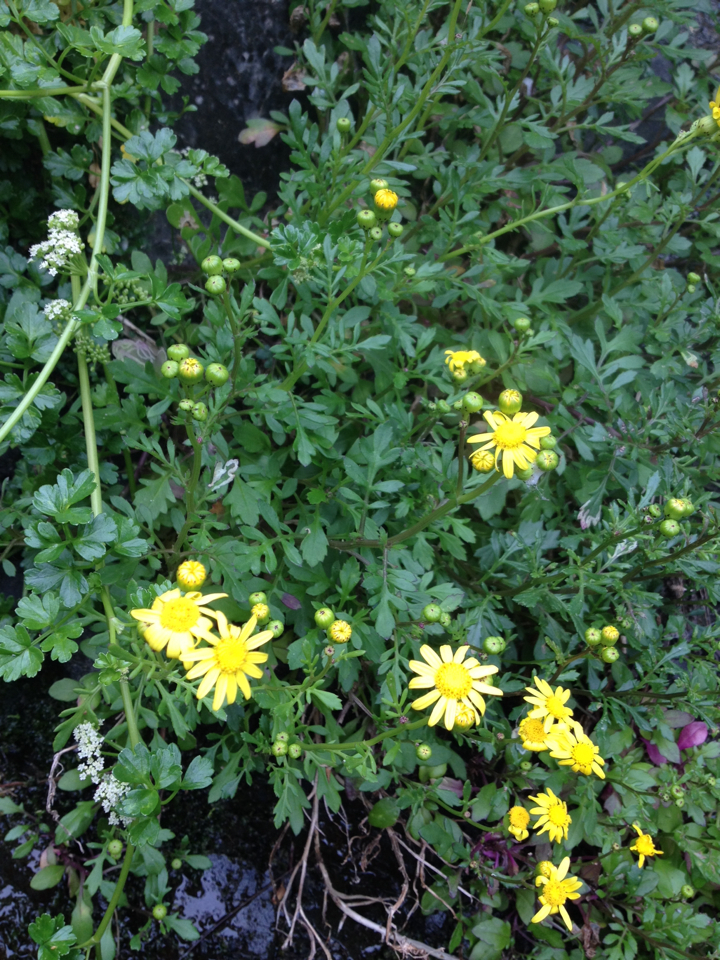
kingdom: Plantae
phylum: Tracheophyta
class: Magnoliopsida
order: Asterales
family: Asteraceae
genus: Senecio
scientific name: Senecio skirrhodon
